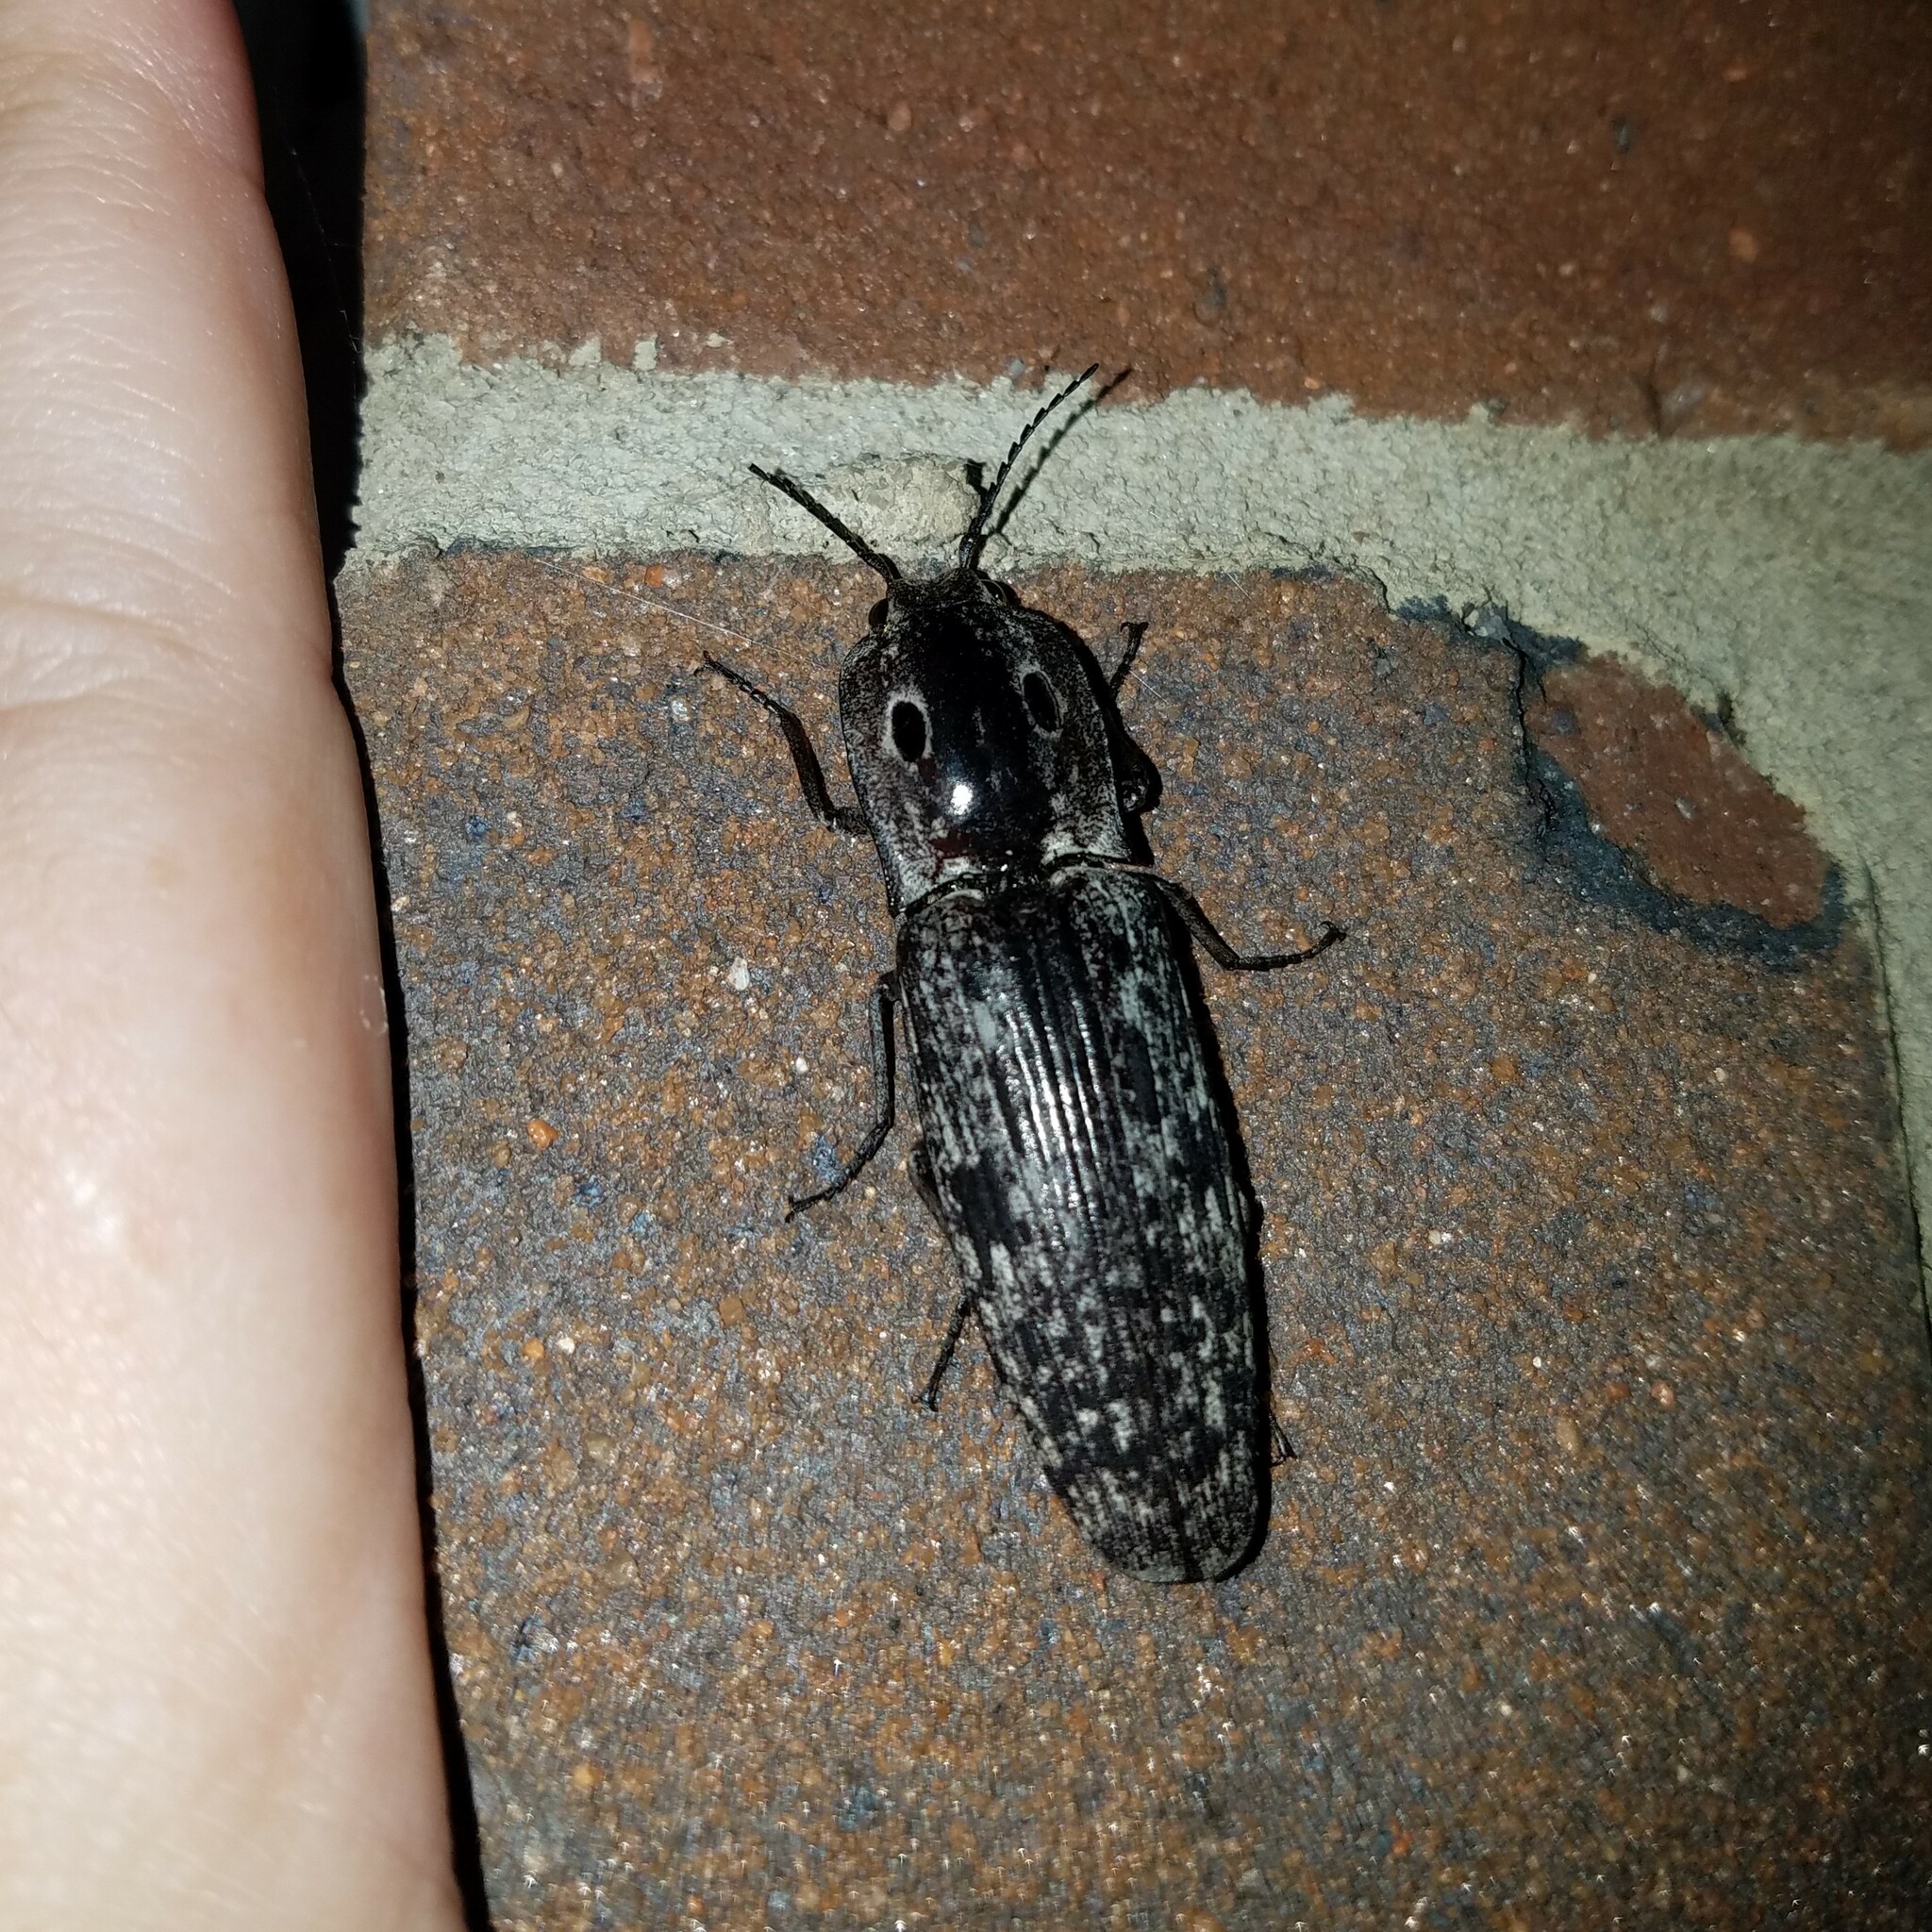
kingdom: Animalia
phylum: Arthropoda
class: Insecta
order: Coleoptera
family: Elateridae
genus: Alaus
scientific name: Alaus myops
